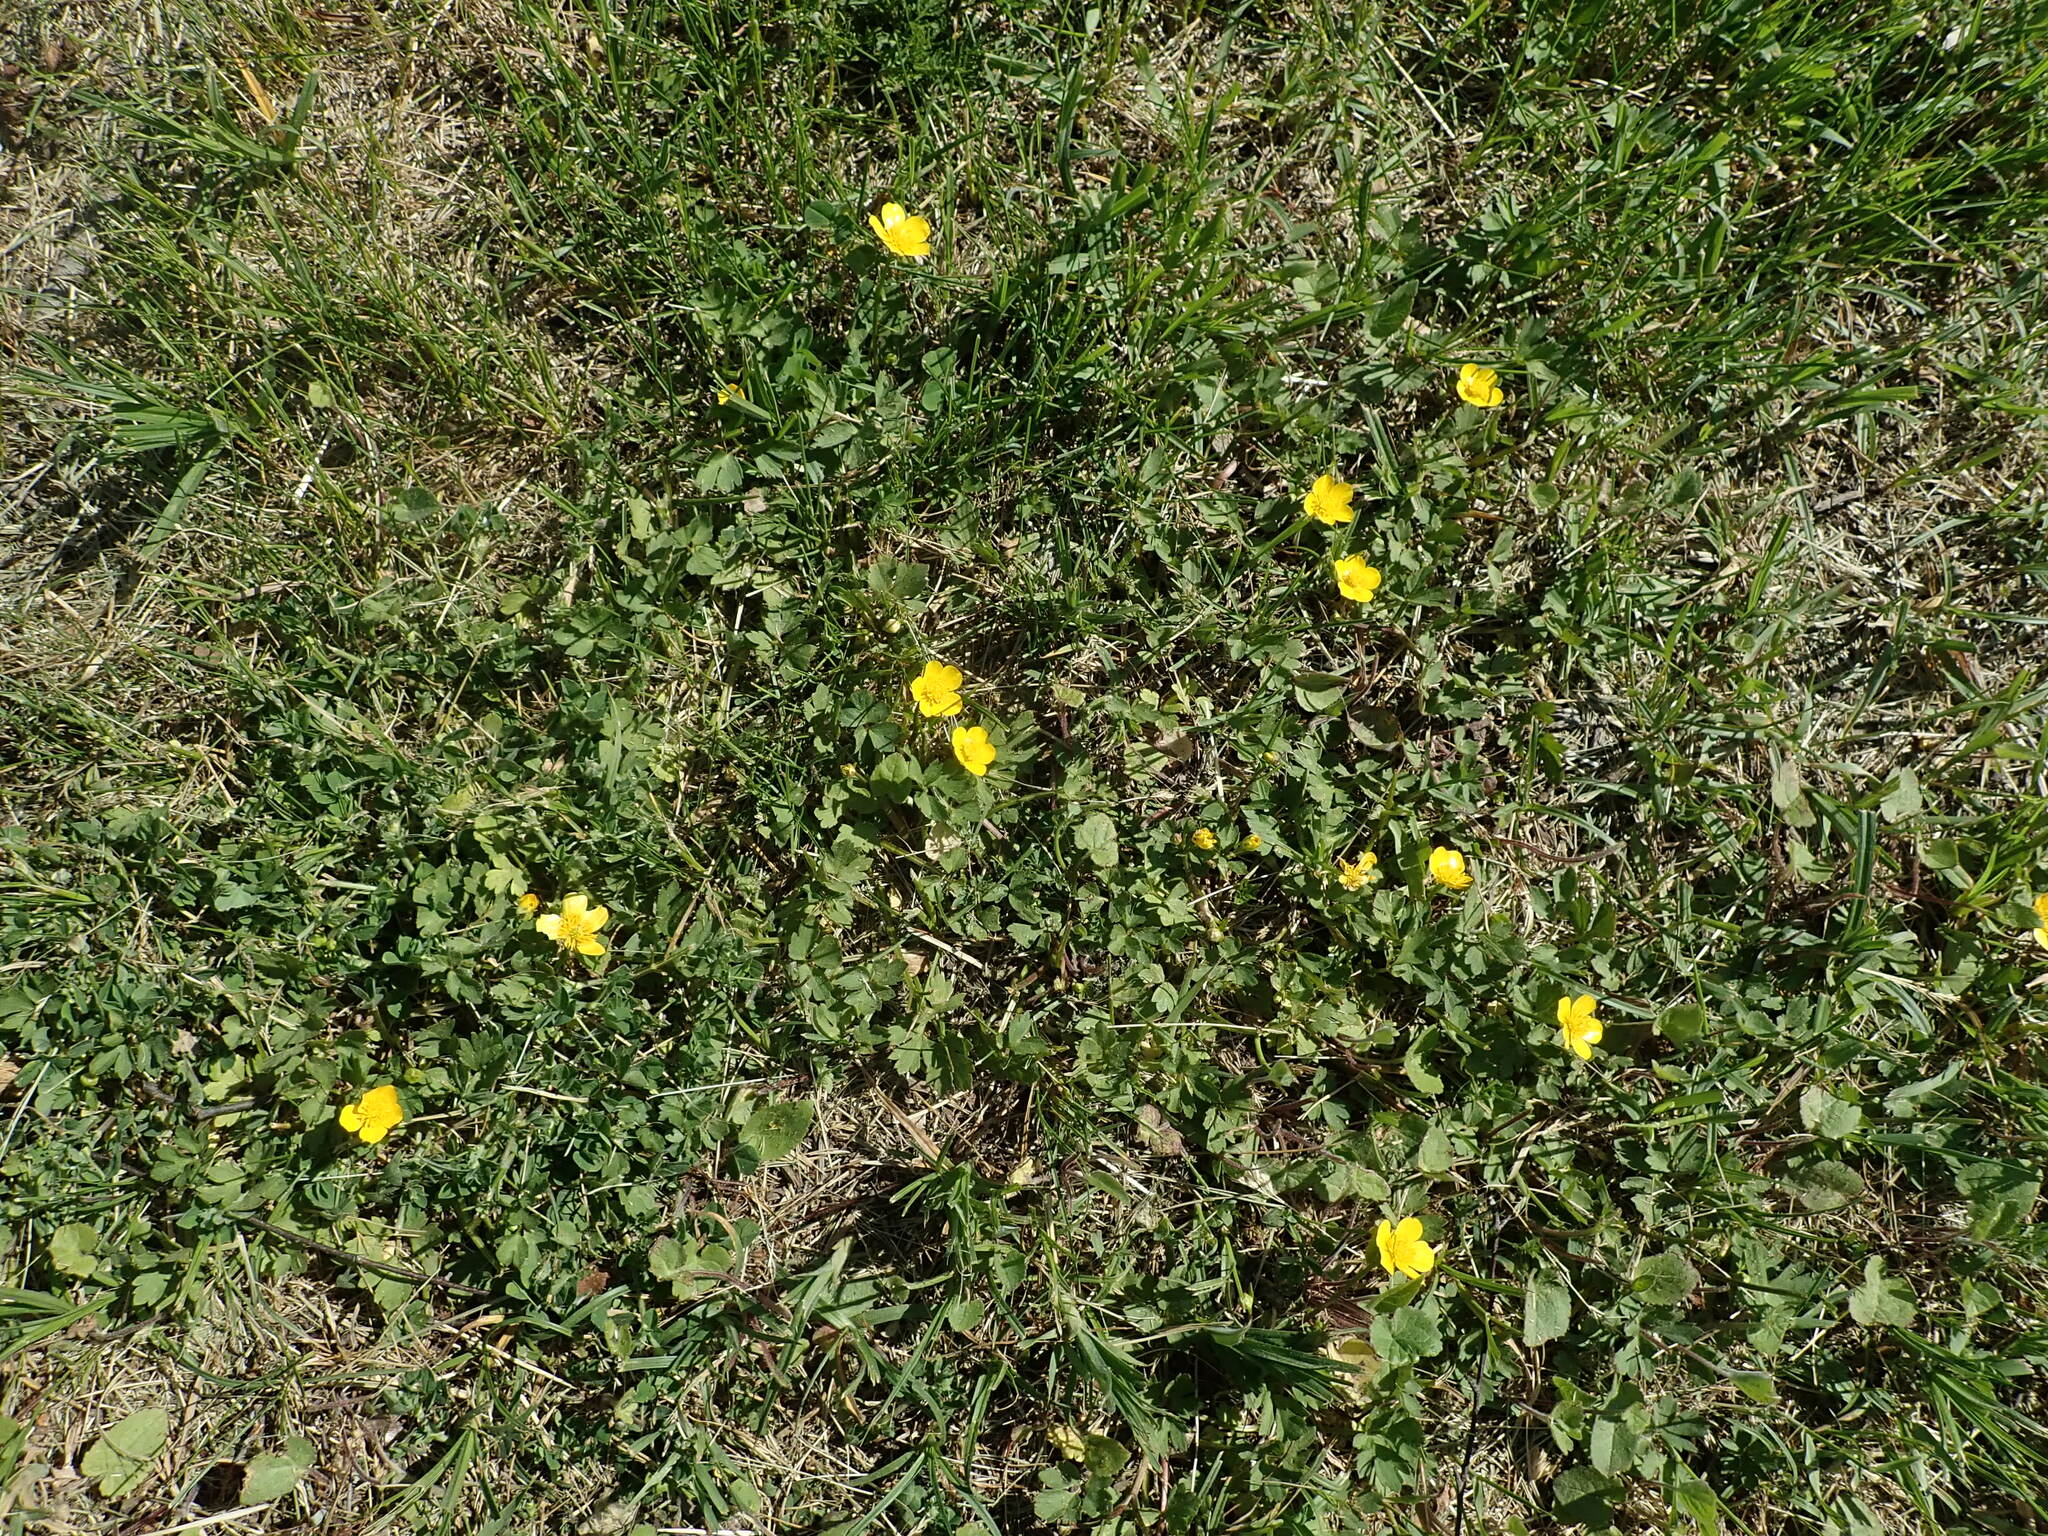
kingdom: Plantae
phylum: Tracheophyta
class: Magnoliopsida
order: Ranunculales
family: Ranunculaceae
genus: Ranunculus
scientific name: Ranunculus repens
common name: Creeping buttercup
